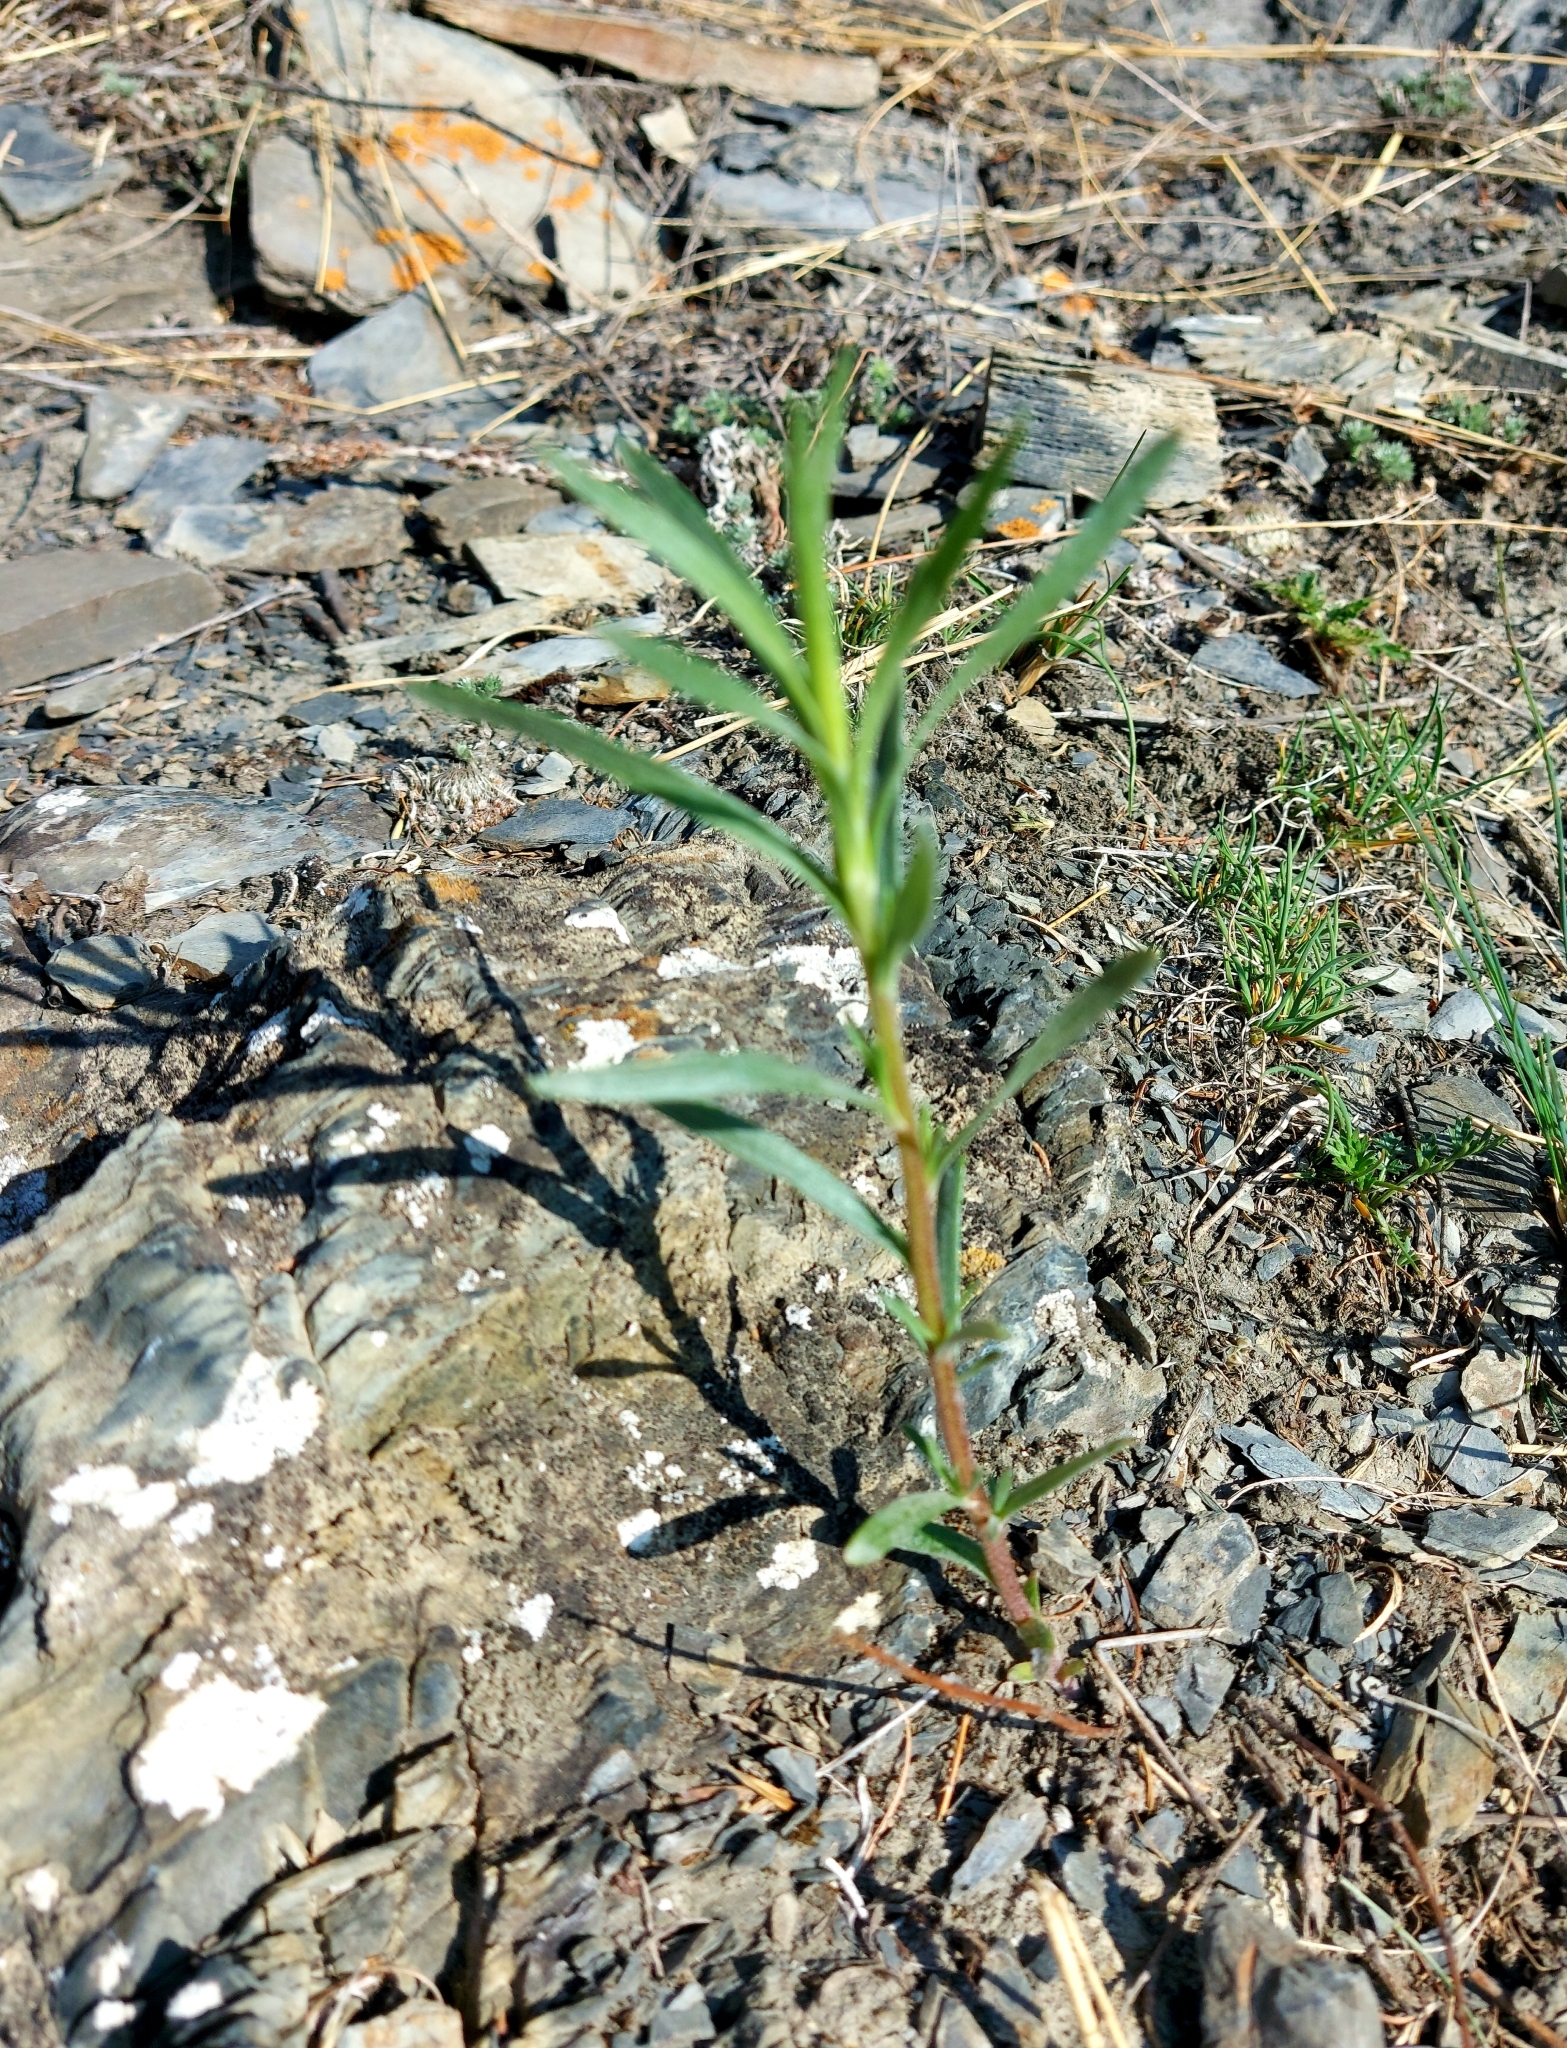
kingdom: Plantae
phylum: Tracheophyta
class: Magnoliopsida
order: Malpighiales
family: Euphorbiaceae
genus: Euphorbia
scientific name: Euphorbia virgata
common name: Leafy spurge
